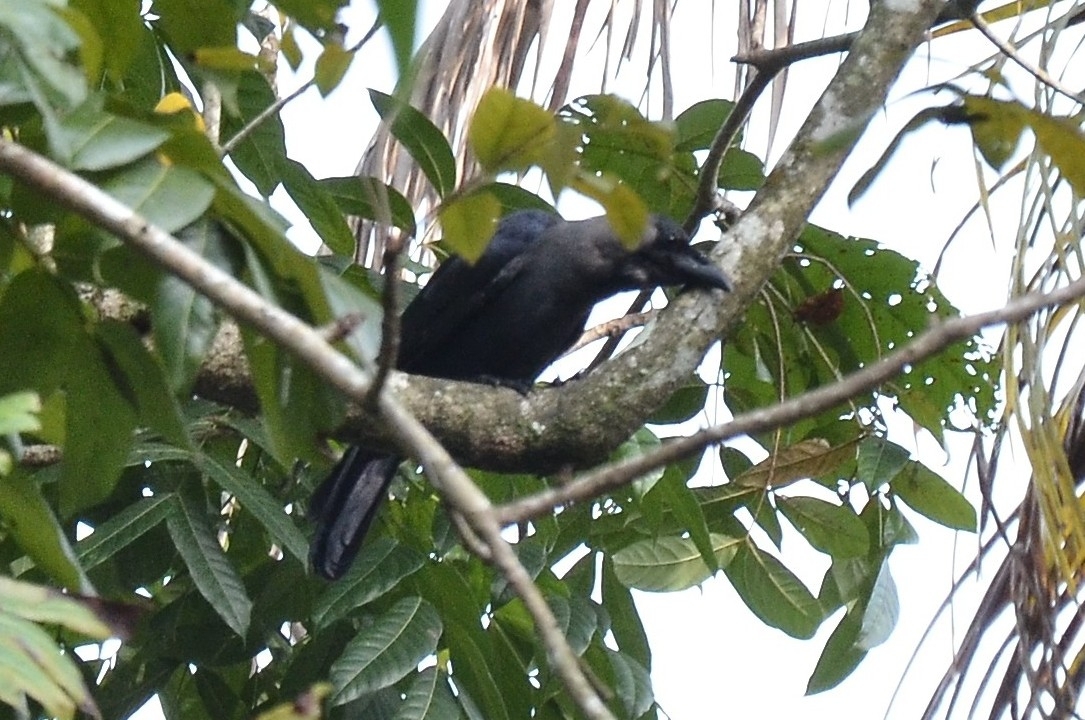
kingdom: Animalia
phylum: Chordata
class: Aves
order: Passeriformes
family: Corvidae
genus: Corvus
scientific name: Corvus splendens
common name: House crow
